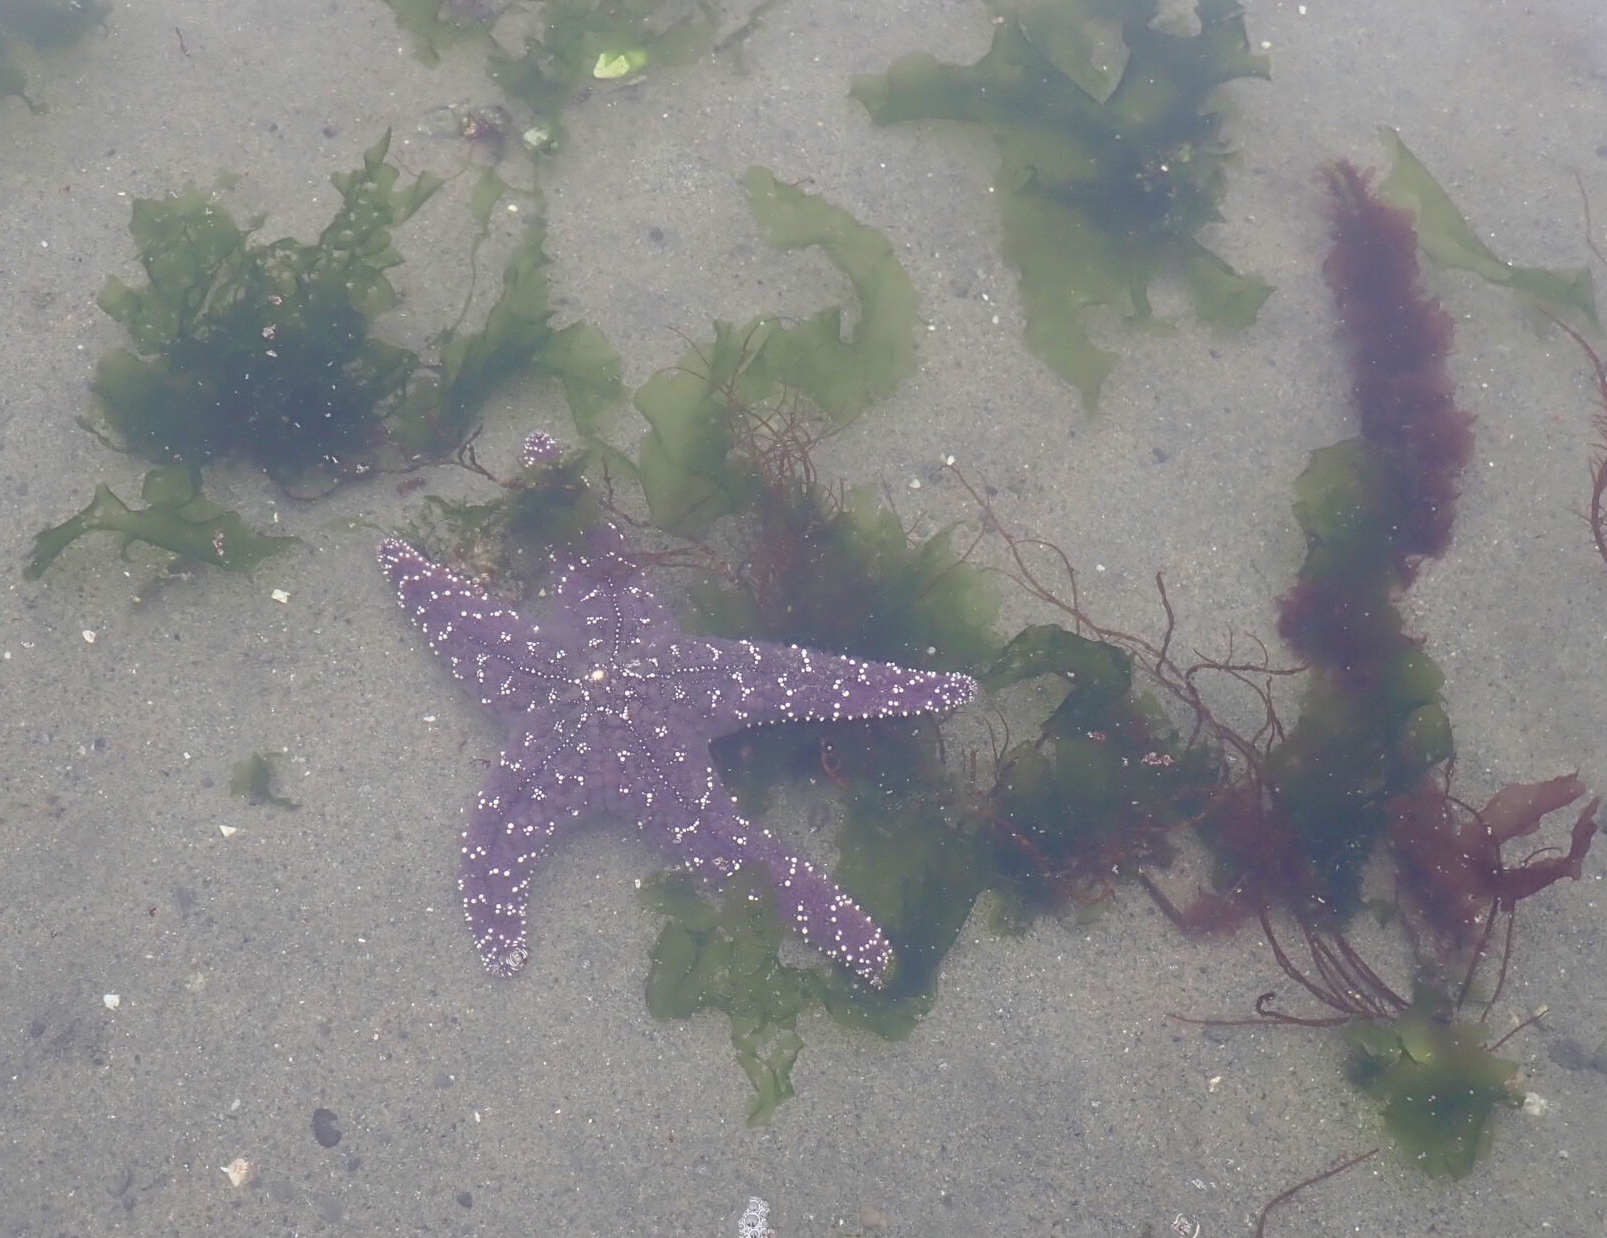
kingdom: Animalia
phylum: Echinodermata
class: Asteroidea
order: Forcipulatida
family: Asteriidae
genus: Pisaster
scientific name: Pisaster ochraceus
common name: Ochre stars
